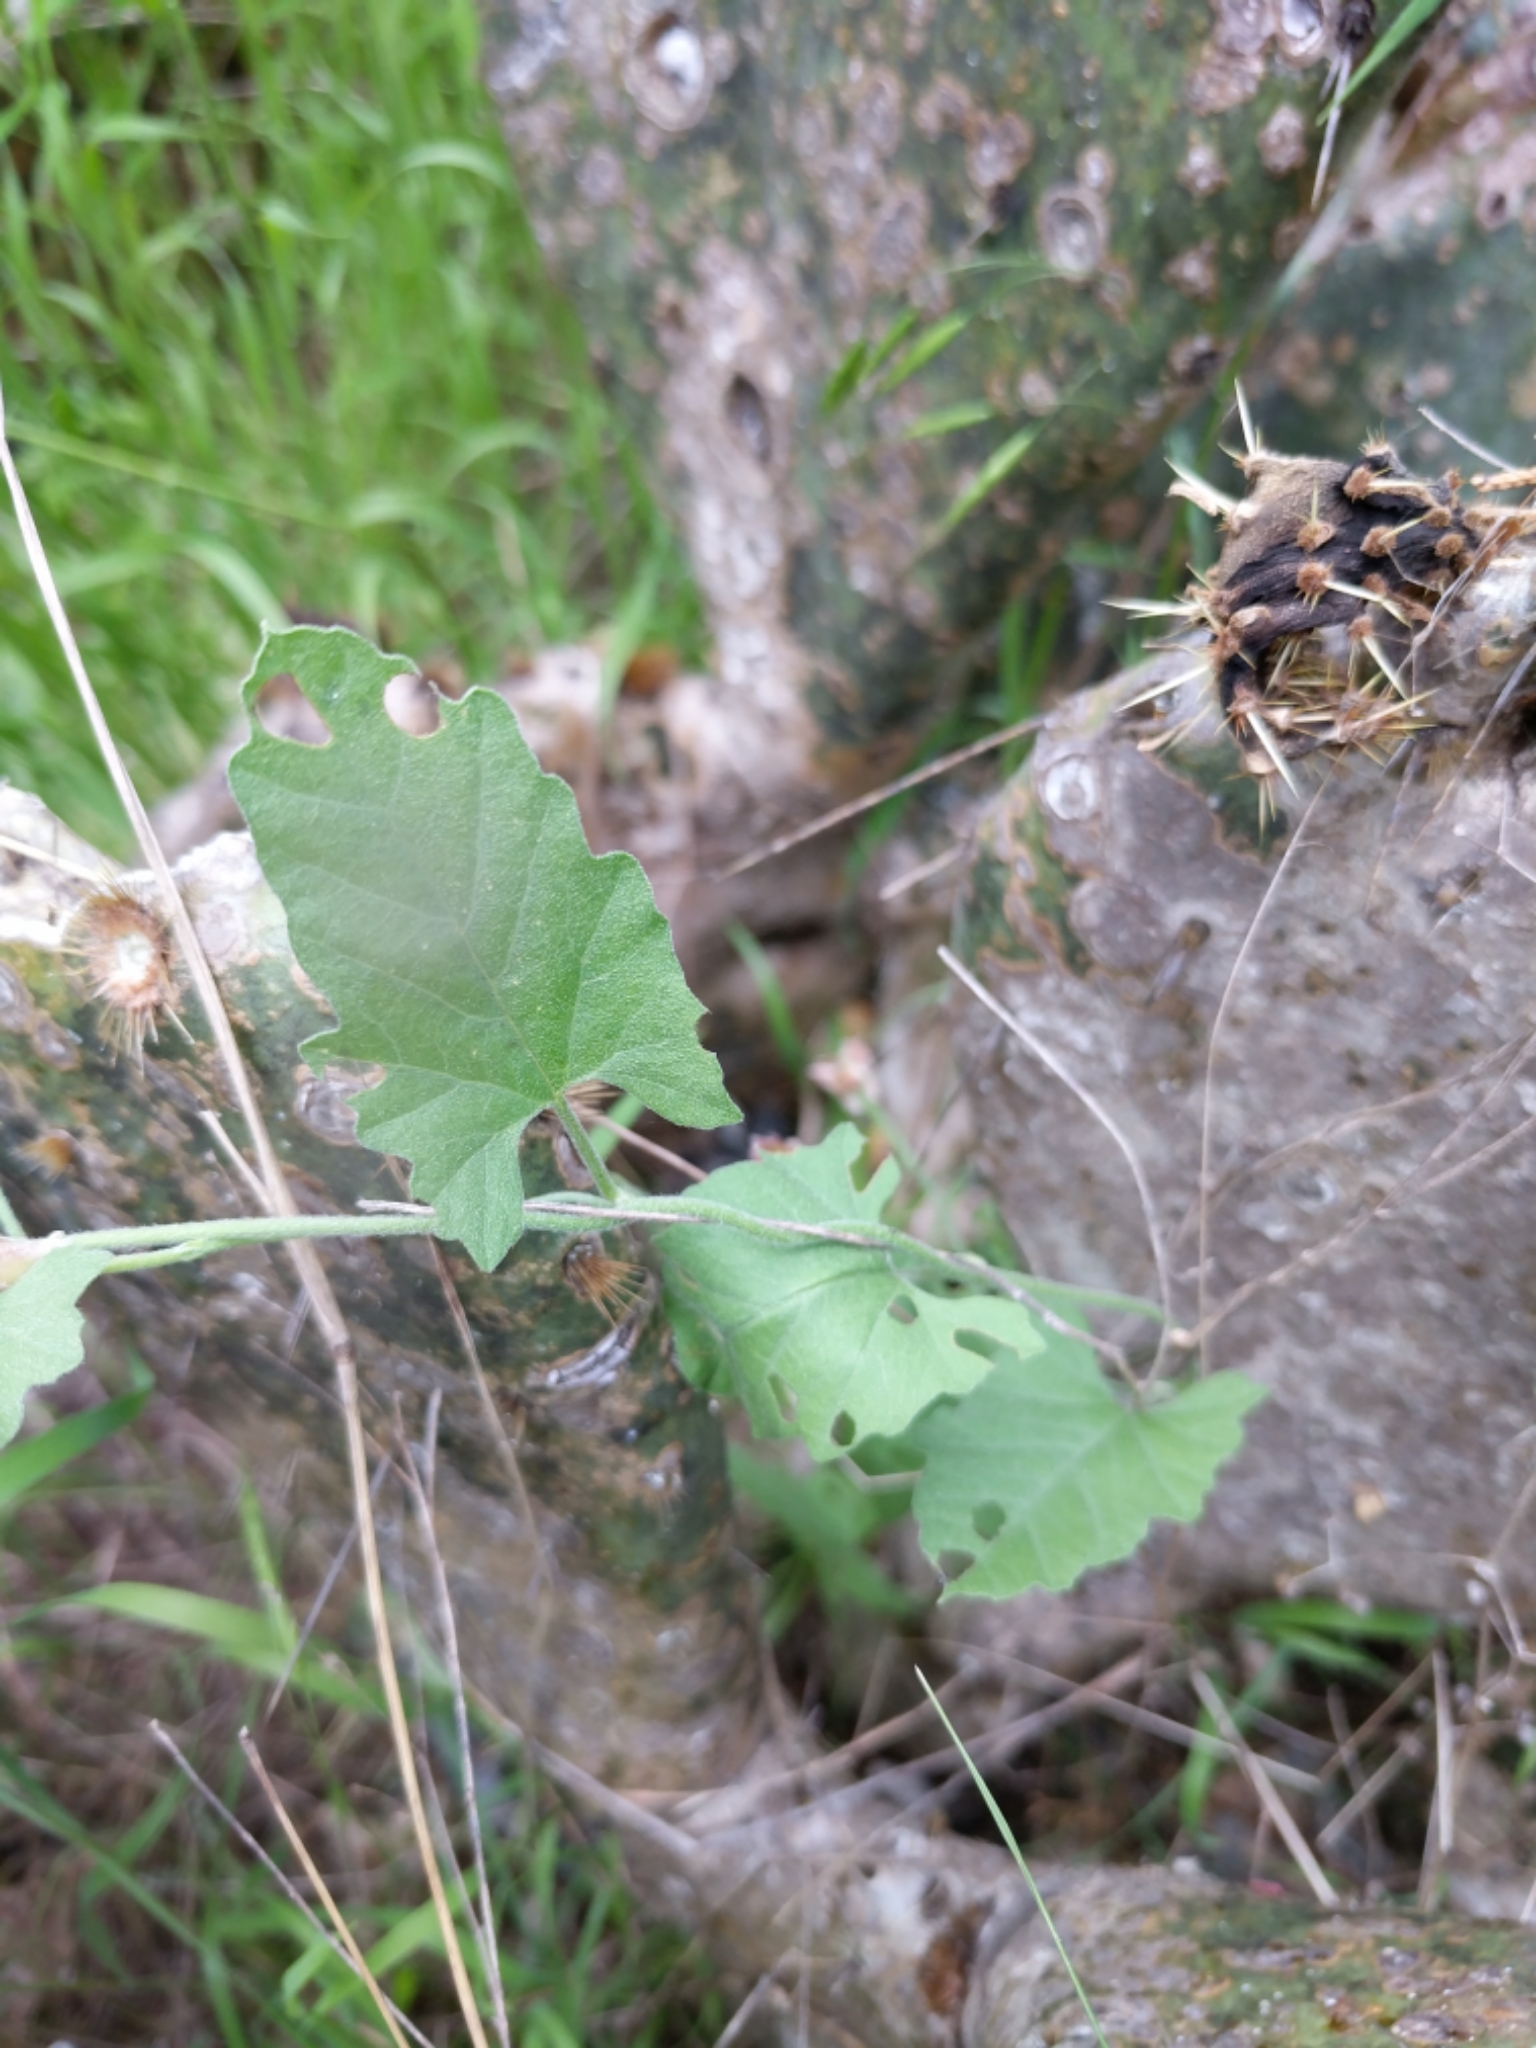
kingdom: Plantae
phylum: Tracheophyta
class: Magnoliopsida
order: Solanales
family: Convolvulaceae
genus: Convolvulus
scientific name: Convolvulus equitans
